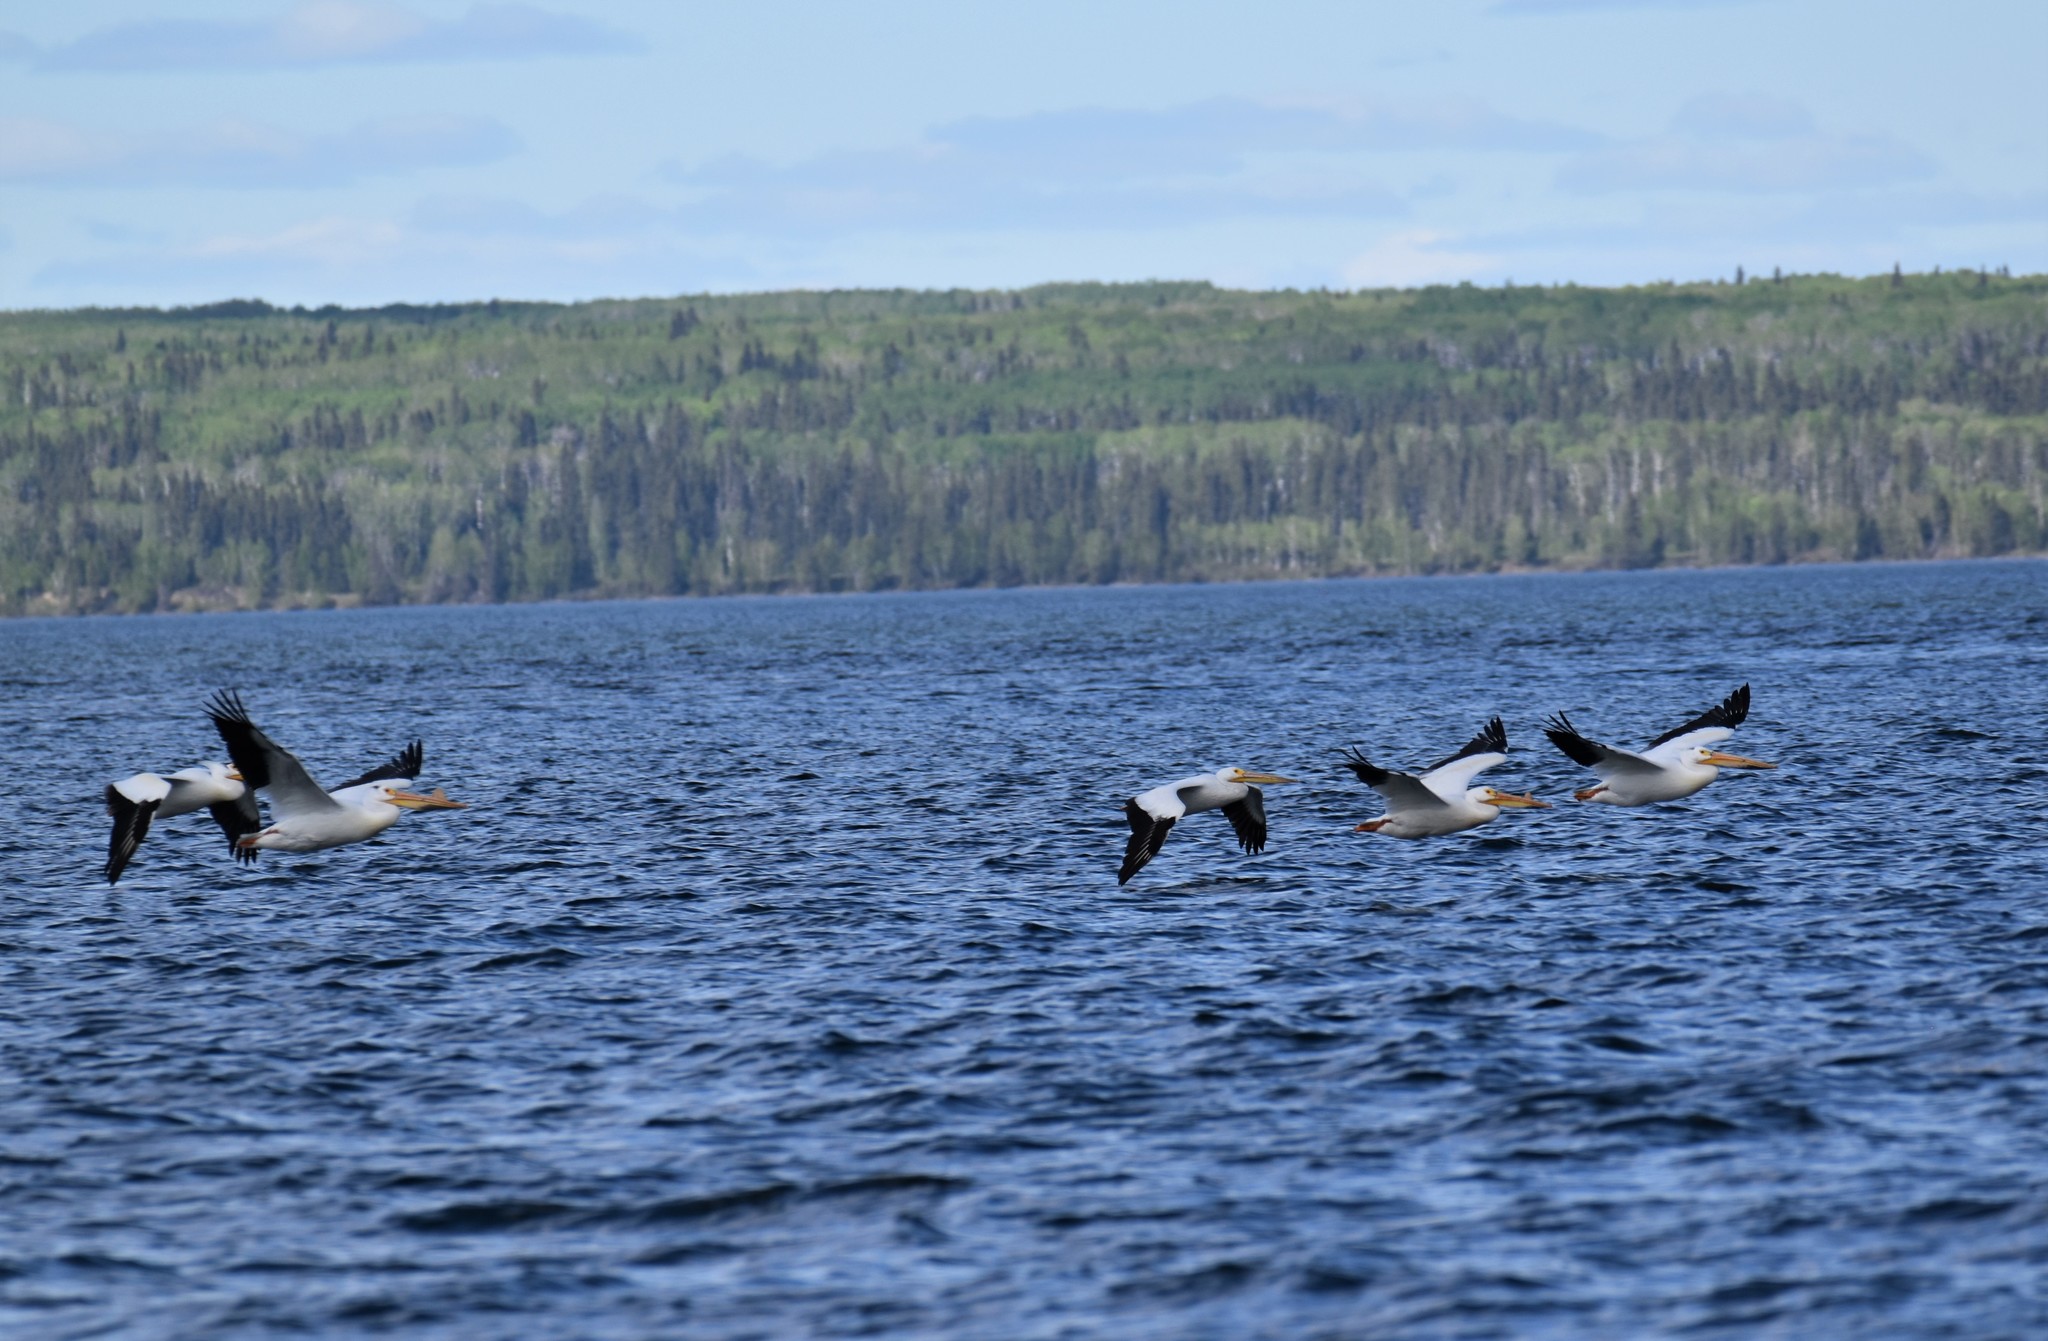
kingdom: Animalia
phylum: Chordata
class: Aves
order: Pelecaniformes
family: Pelecanidae
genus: Pelecanus
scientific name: Pelecanus erythrorhynchos
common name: American white pelican
